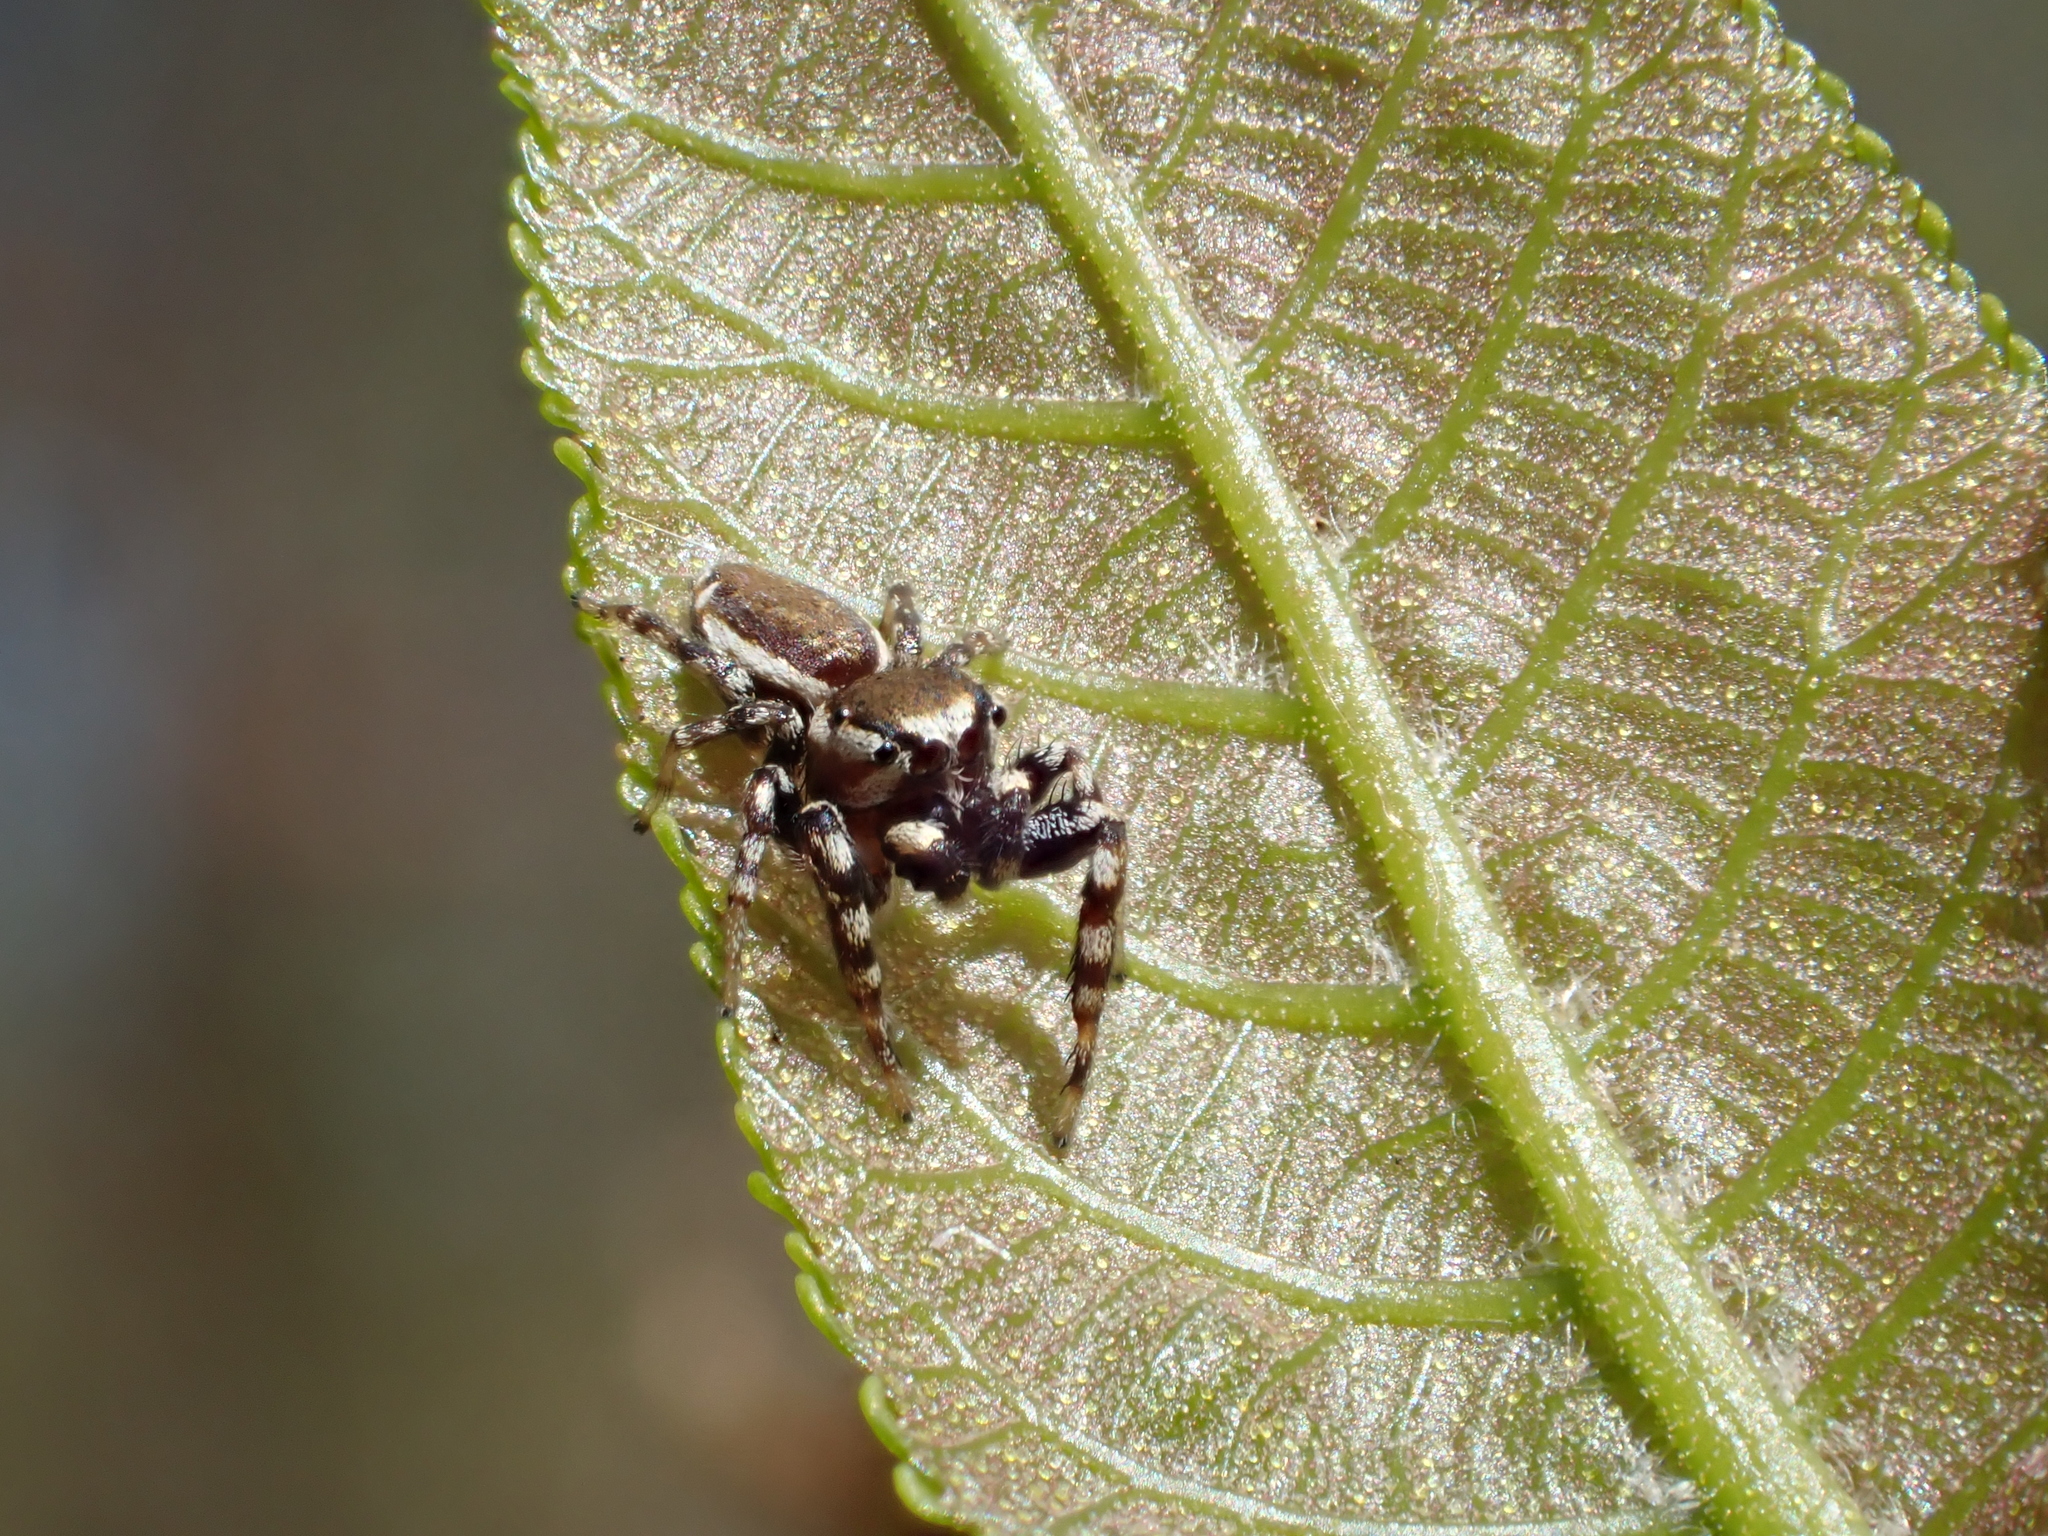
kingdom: Animalia
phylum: Arthropoda
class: Arachnida
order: Araneae
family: Salticidae
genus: Pelegrina
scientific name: Pelegrina proterva
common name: Common white-cheeked jumping spider
